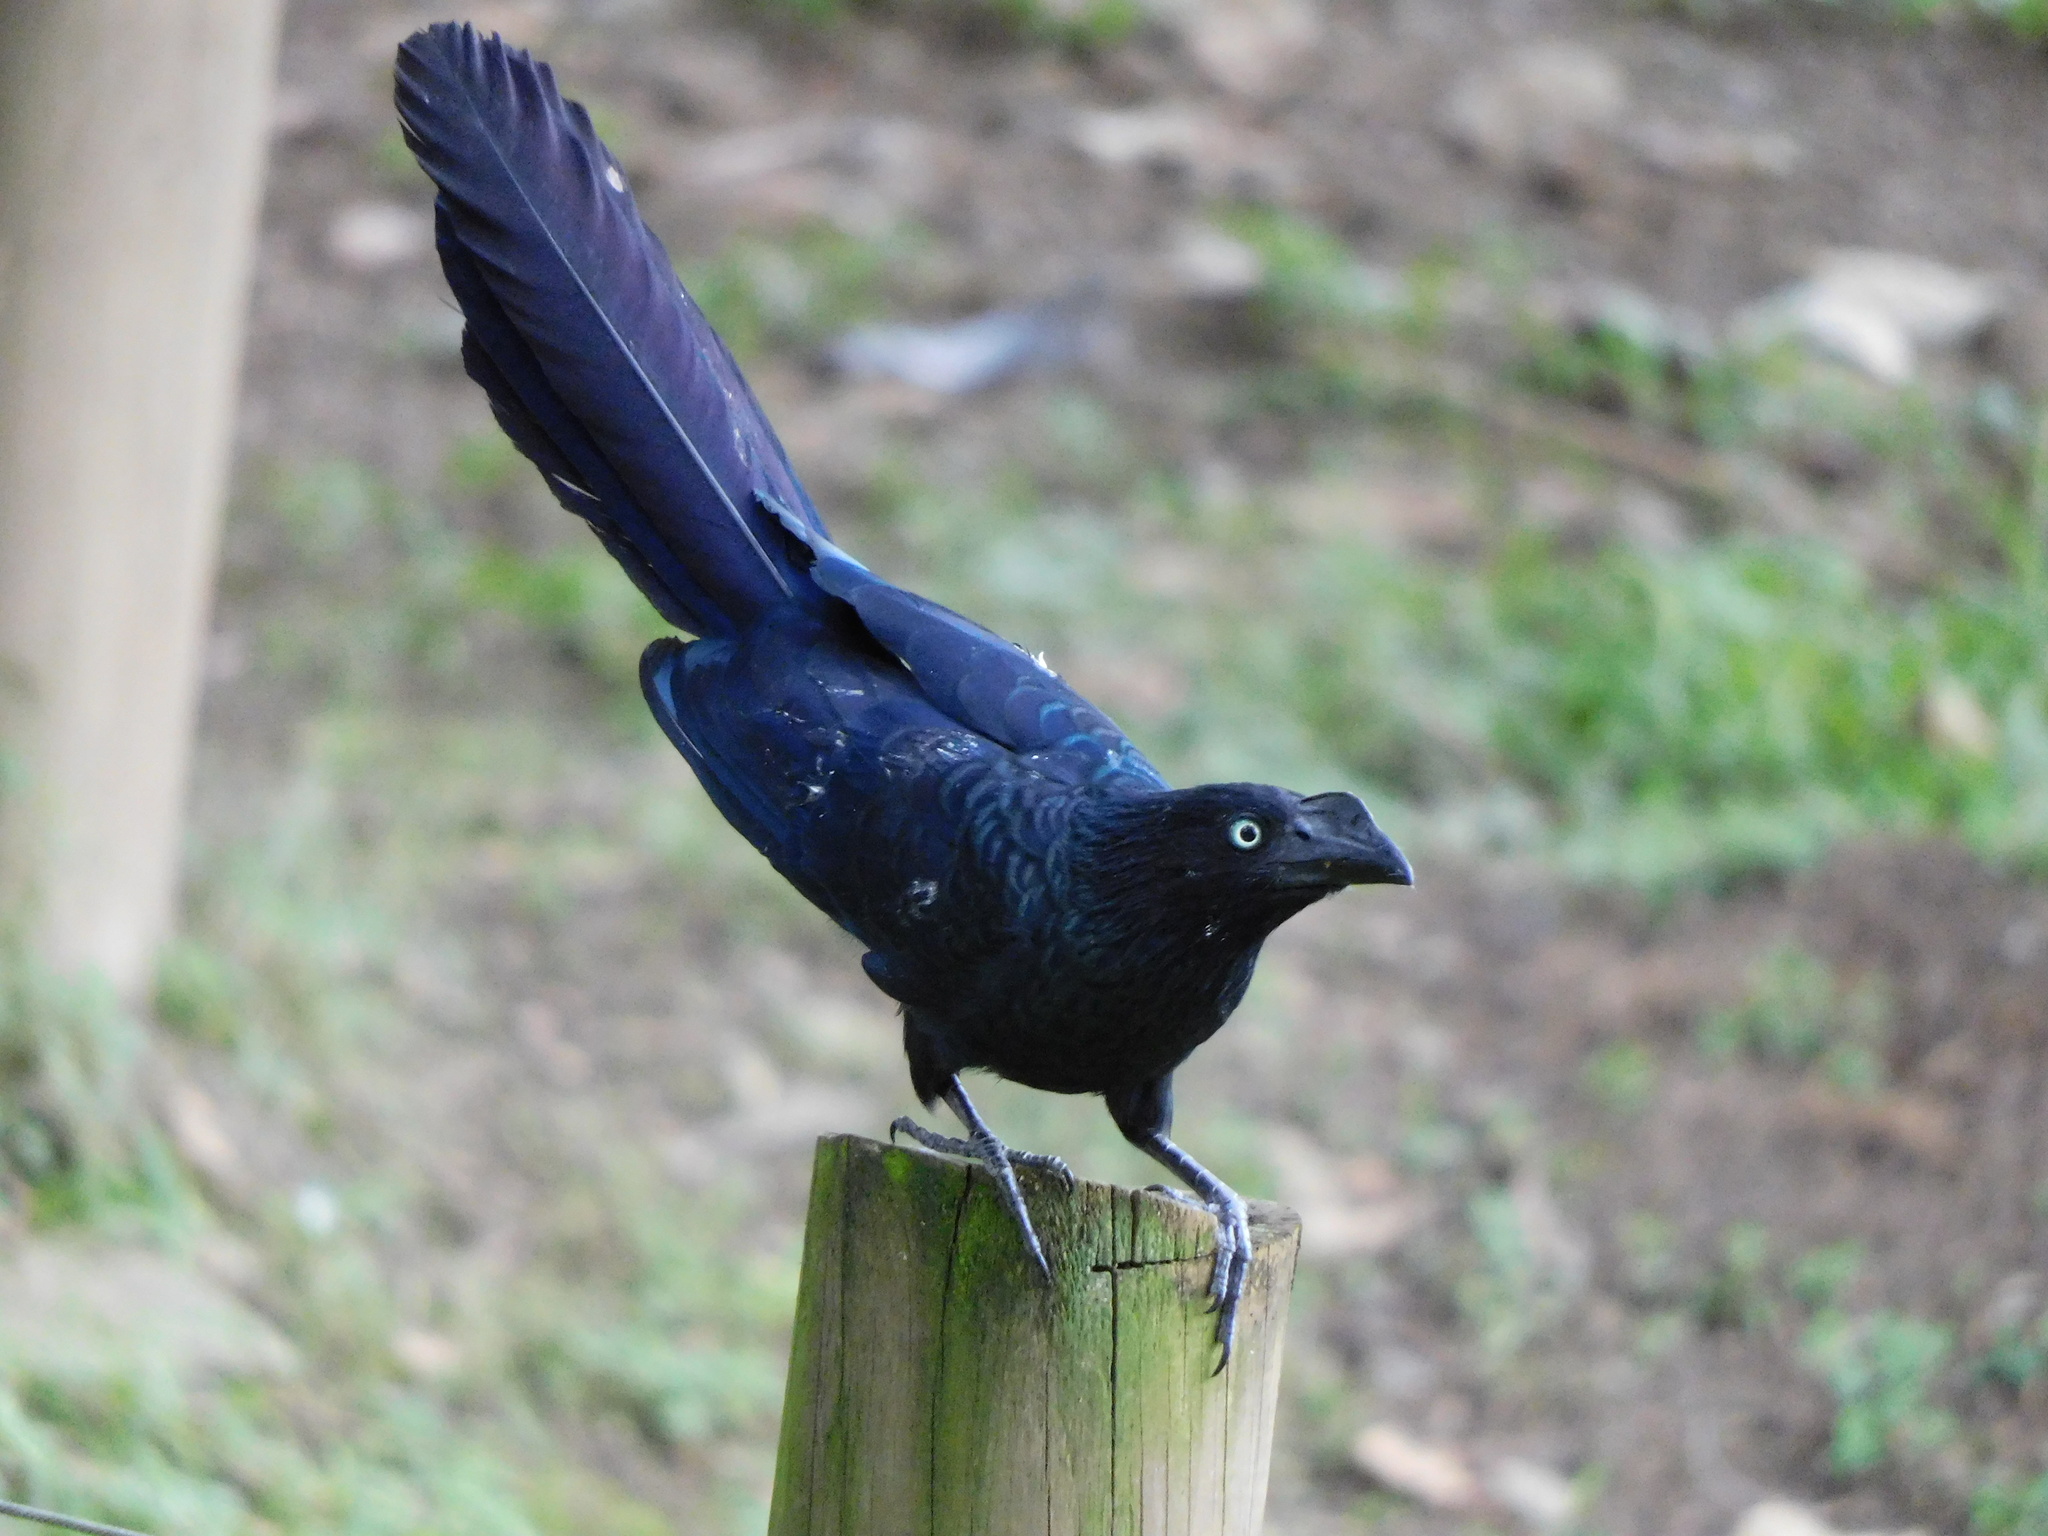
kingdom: Animalia
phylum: Chordata
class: Aves
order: Cuculiformes
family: Cuculidae
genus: Crotophaga
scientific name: Crotophaga major
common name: Greater ani
